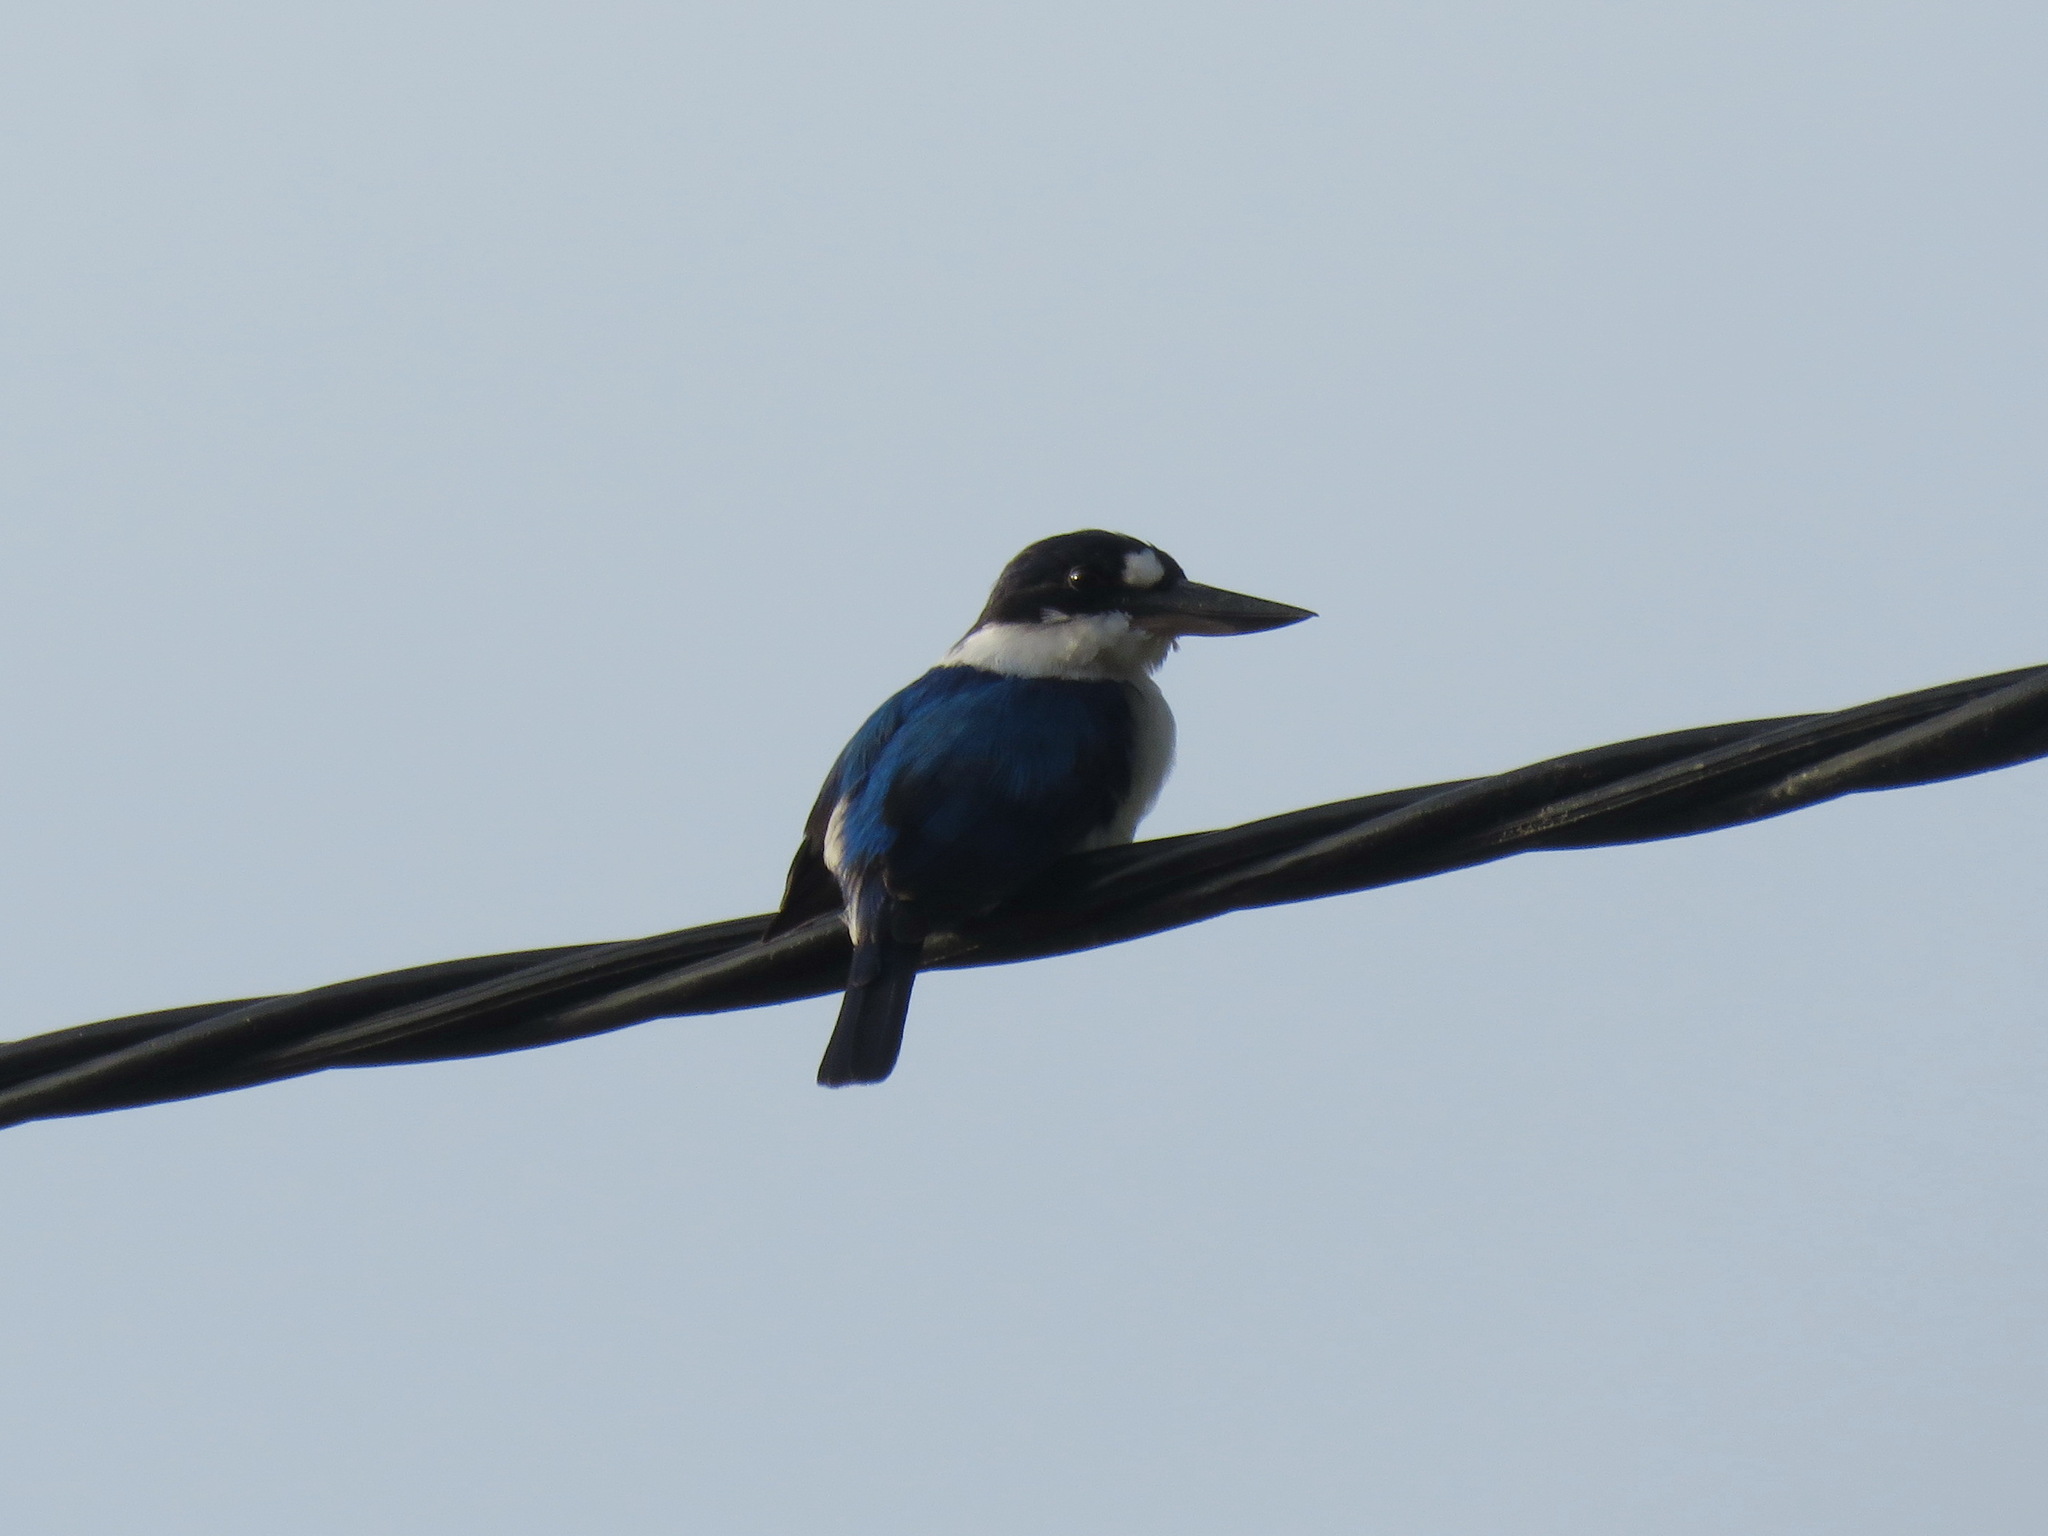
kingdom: Animalia
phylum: Chordata
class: Aves
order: Coraciiformes
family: Alcedinidae
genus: Todiramphus
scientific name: Todiramphus macleayii
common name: Forest kingfisher
